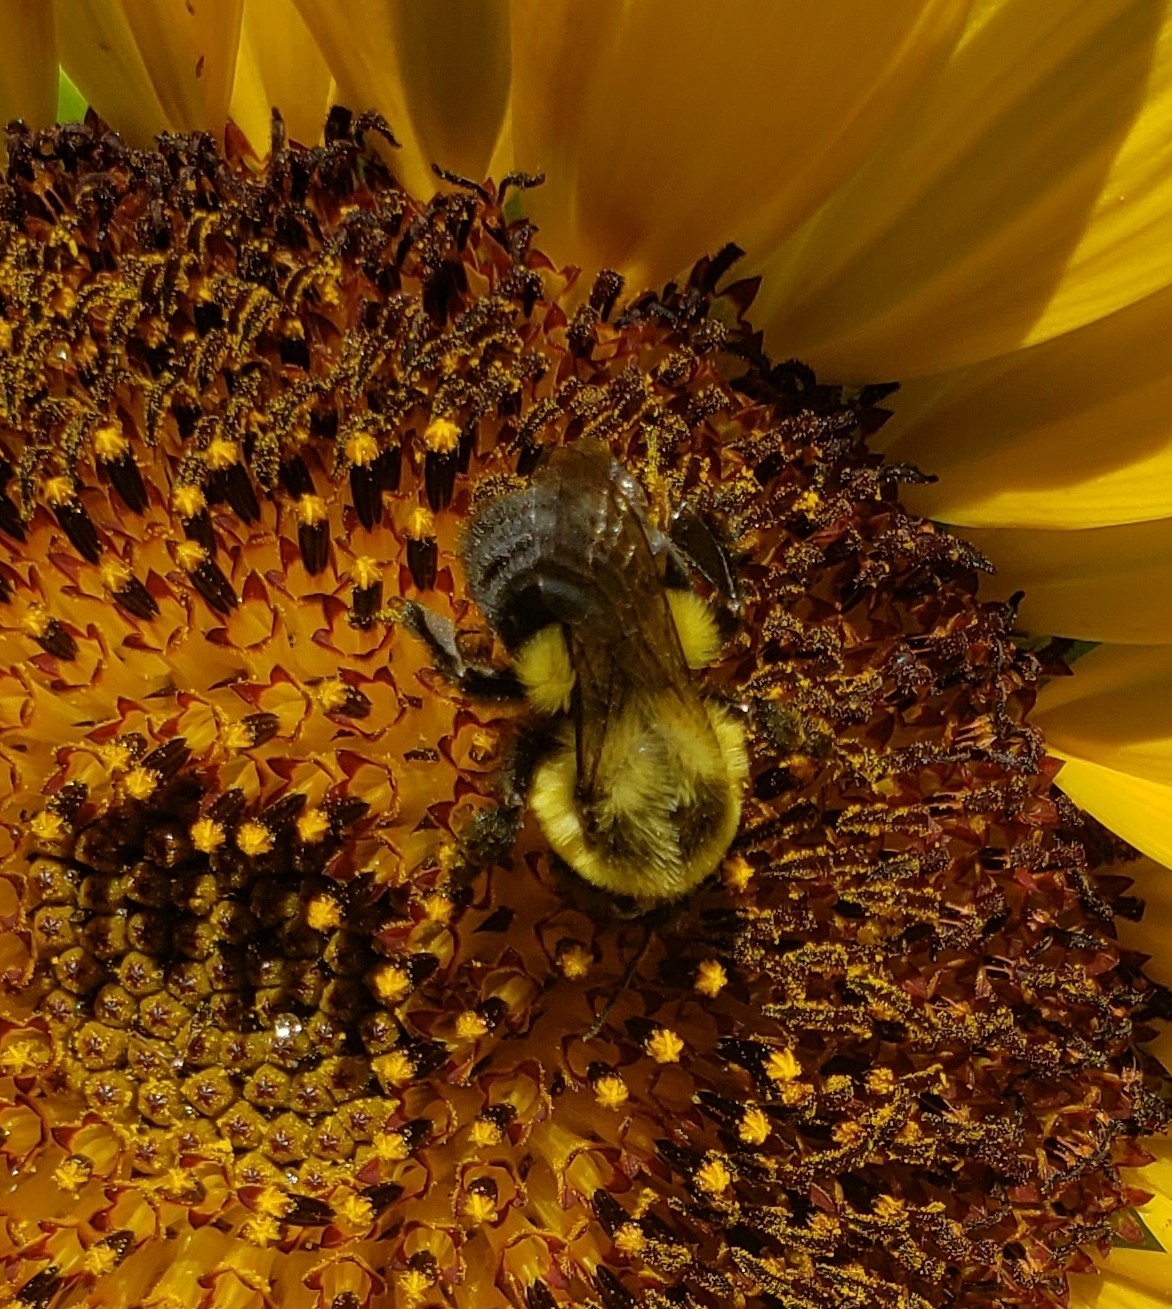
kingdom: Animalia
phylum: Arthropoda
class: Insecta
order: Hymenoptera
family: Apidae
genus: Bombus
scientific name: Bombus impatiens
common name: Common eastern bumble bee
